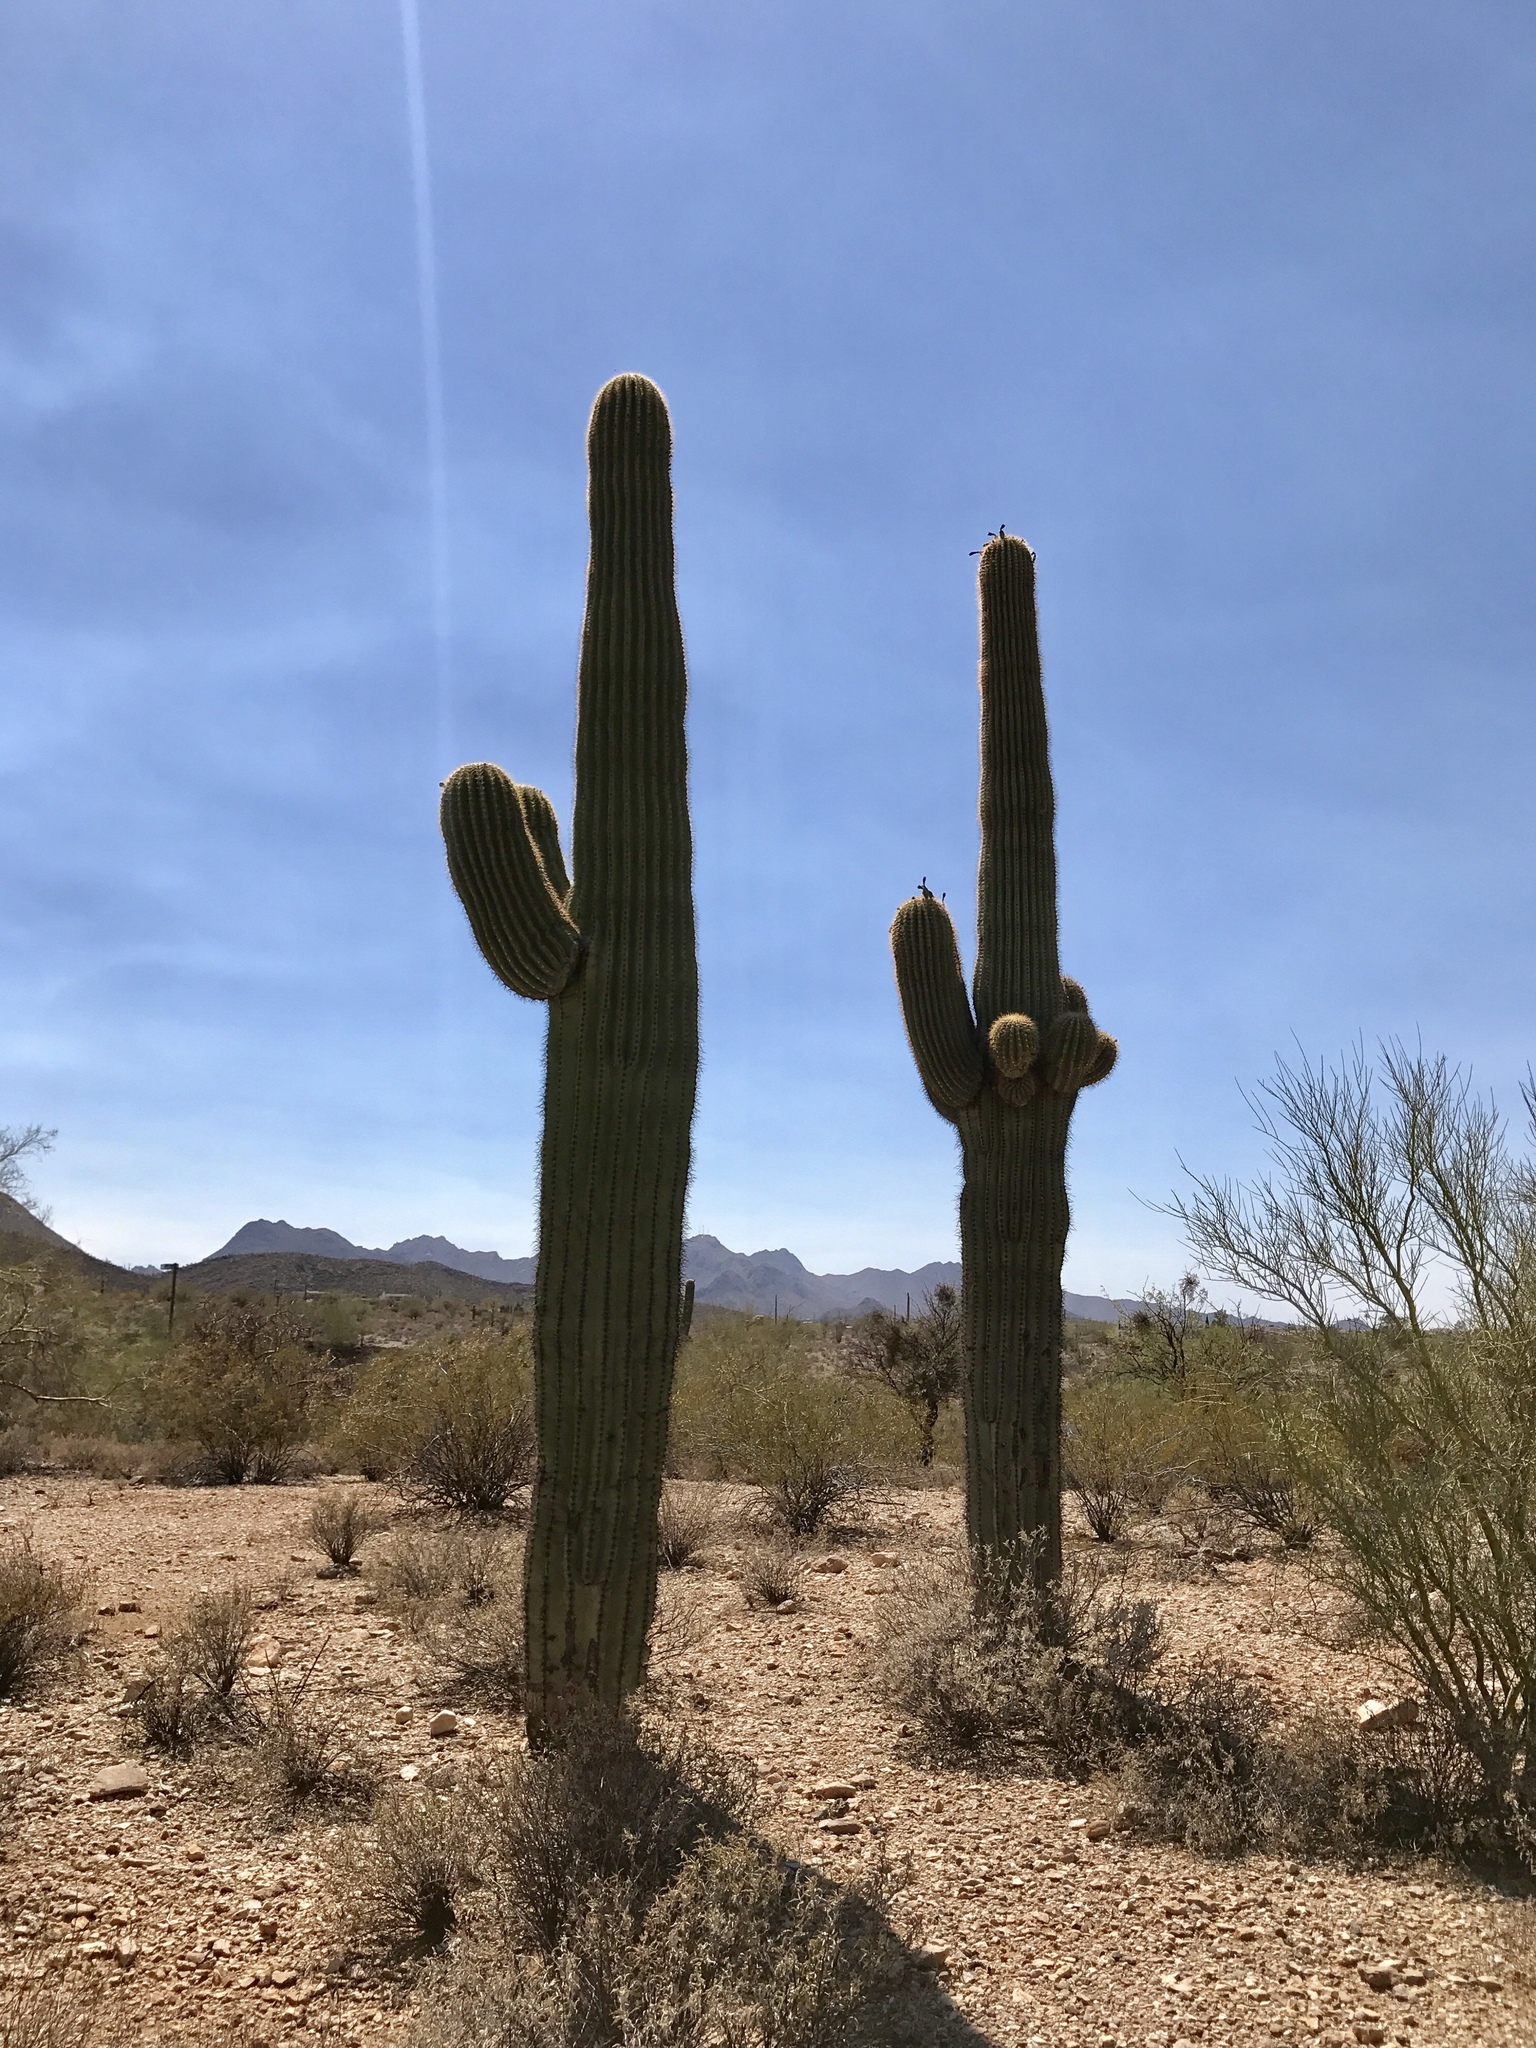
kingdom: Plantae
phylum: Tracheophyta
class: Magnoliopsida
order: Caryophyllales
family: Cactaceae
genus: Carnegiea
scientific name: Carnegiea gigantea
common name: Saguaro
